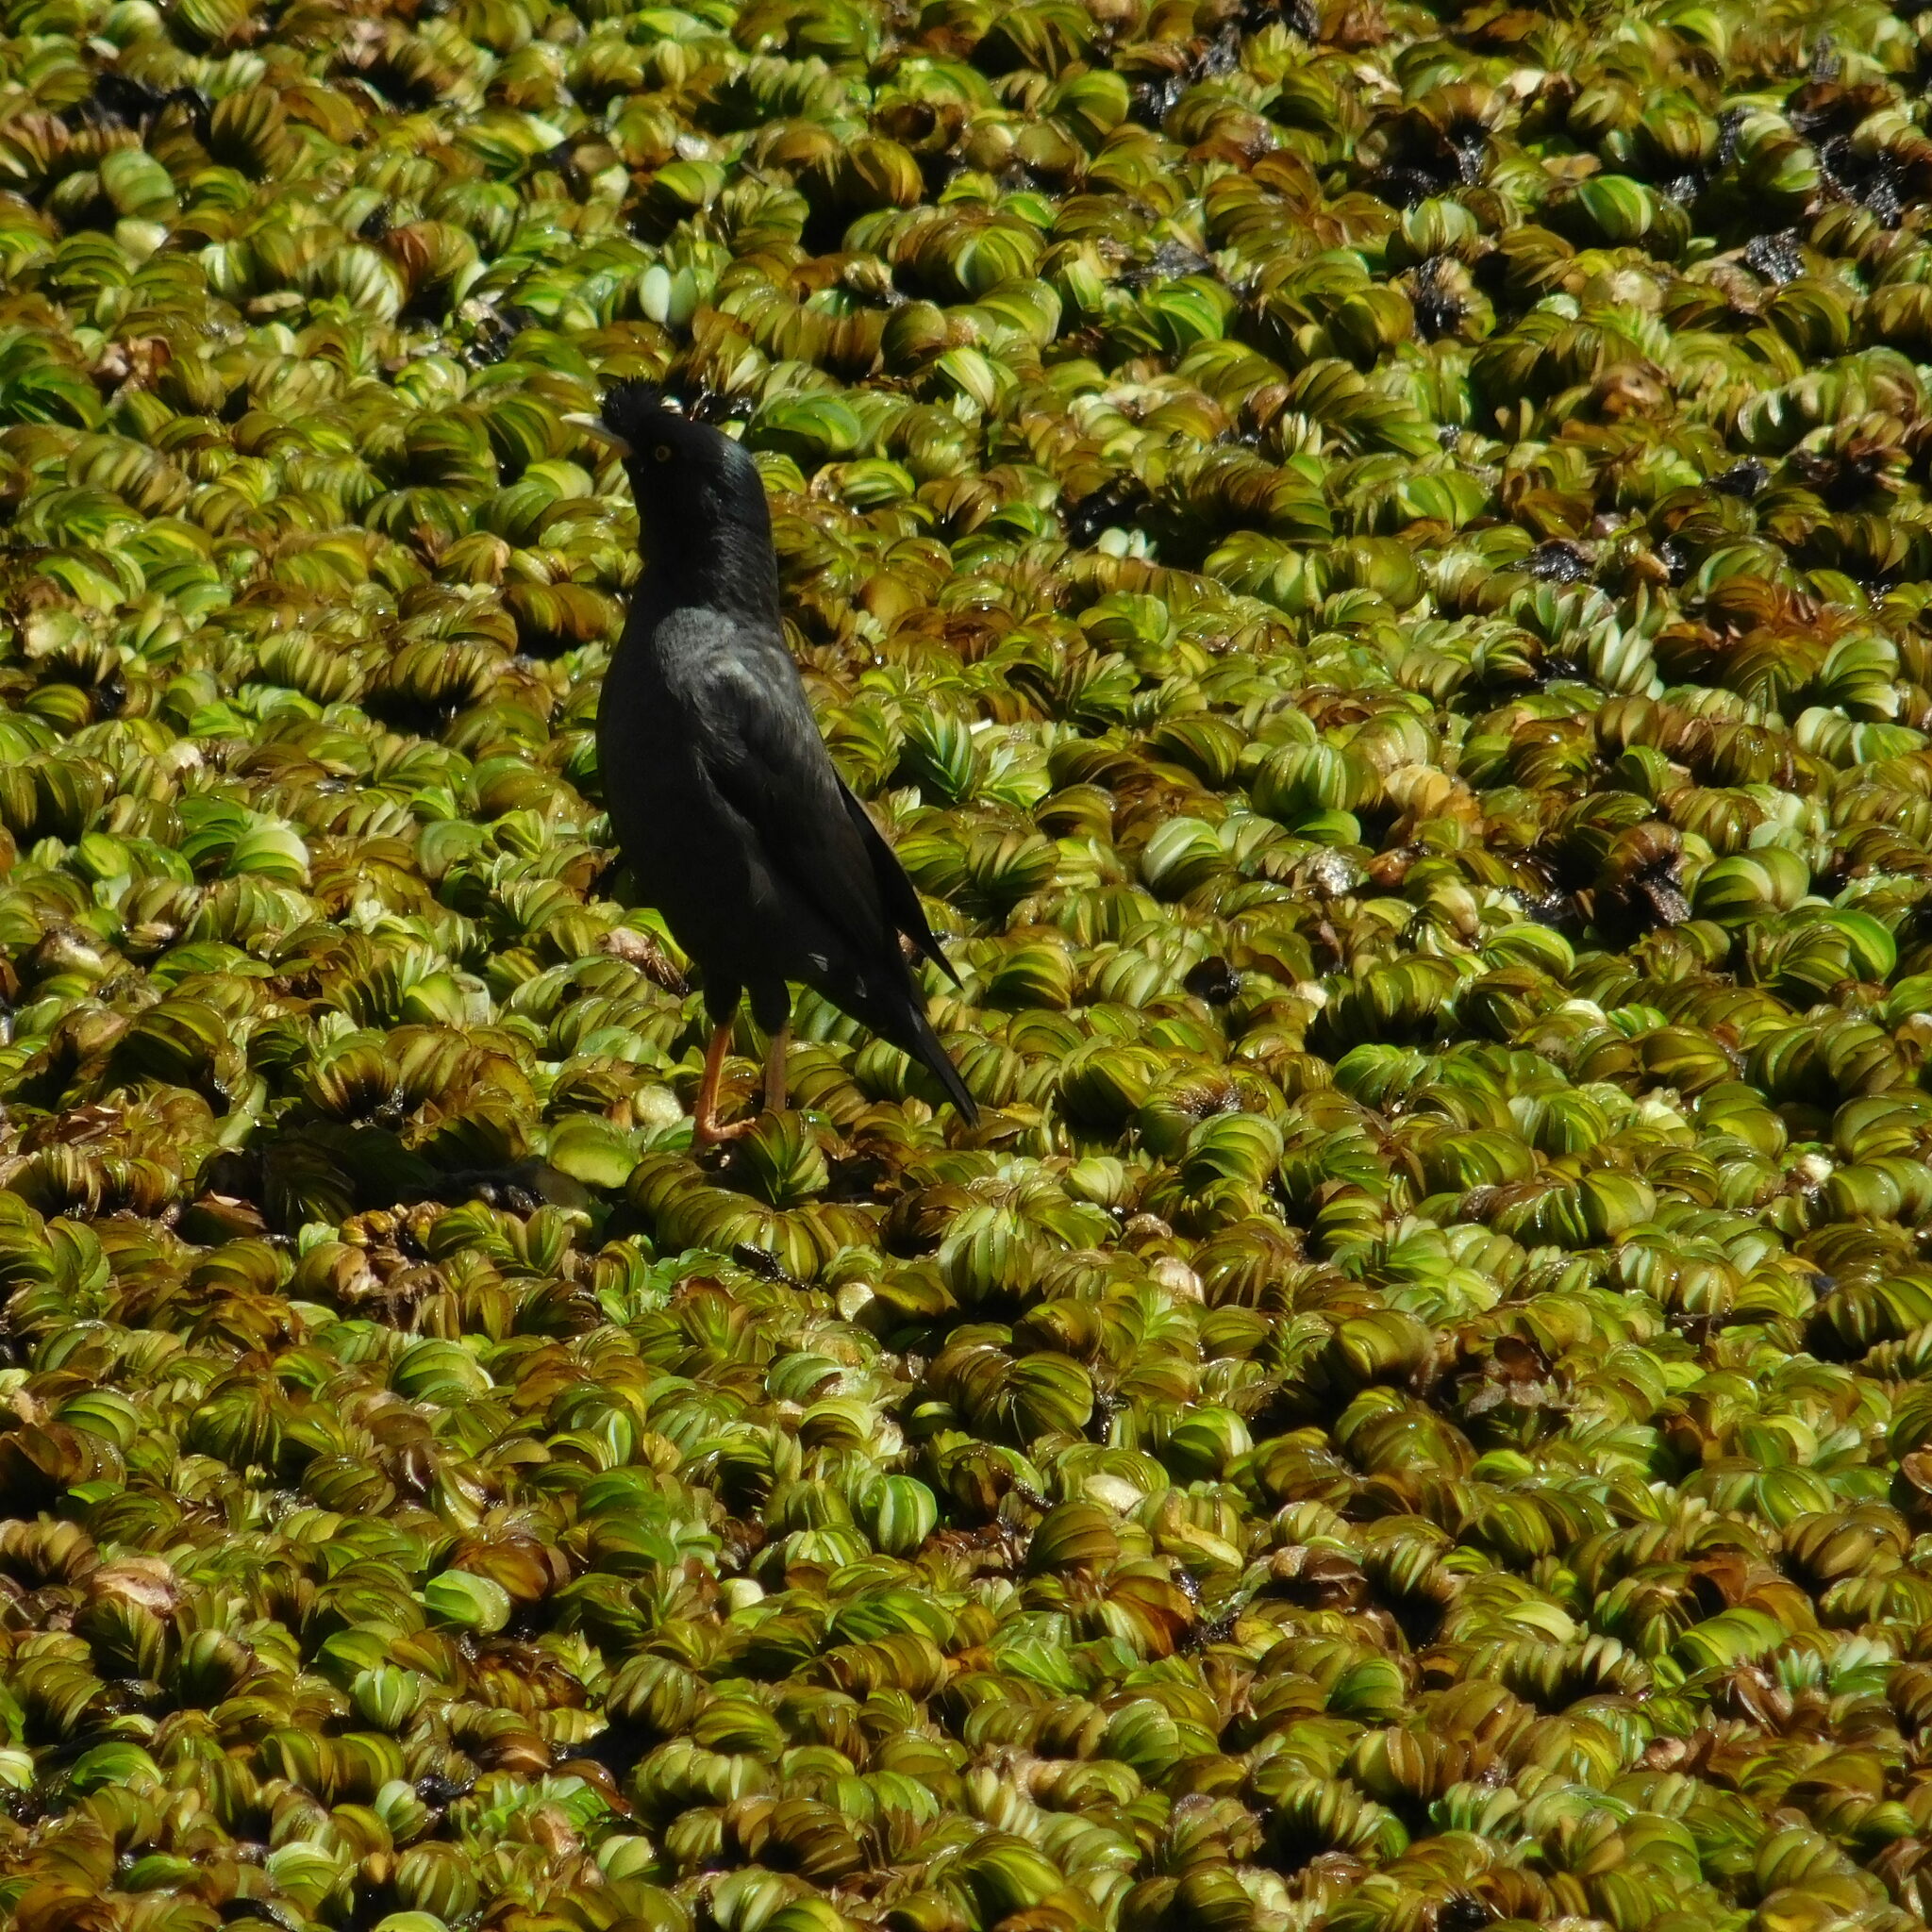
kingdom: Animalia
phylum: Chordata
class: Aves
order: Passeriformes
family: Sturnidae
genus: Acridotheres
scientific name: Acridotheres cristatellus
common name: Crested myna
